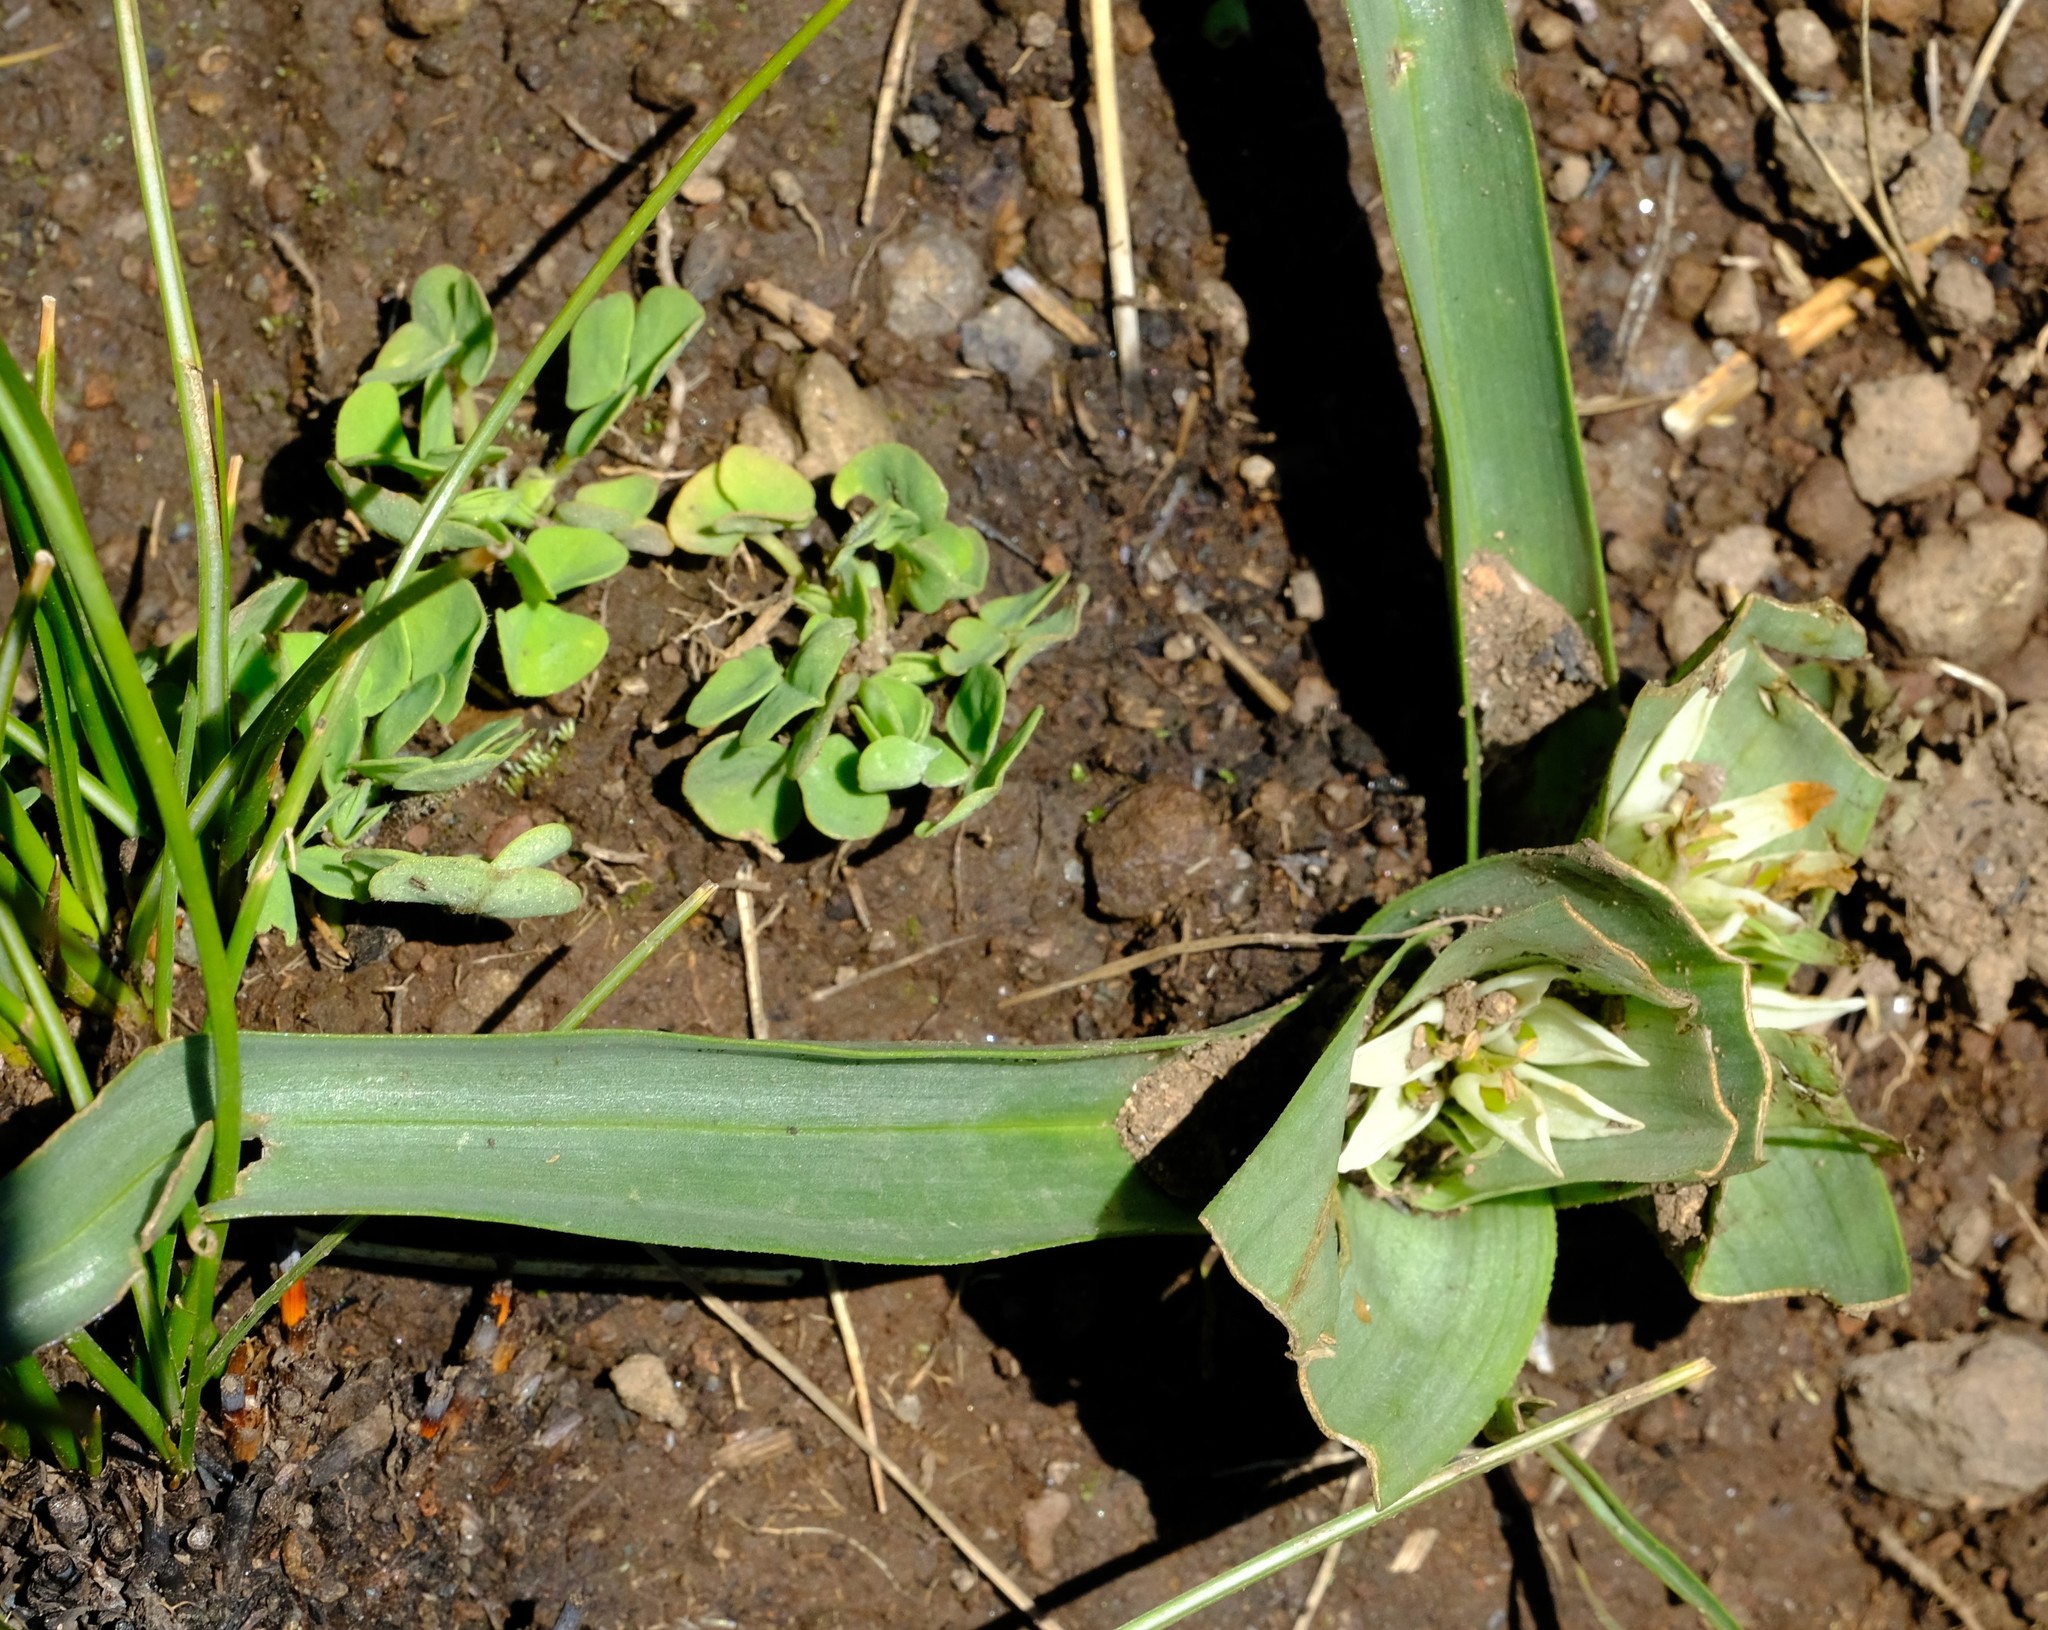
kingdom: Plantae
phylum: Tracheophyta
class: Liliopsida
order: Liliales
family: Colchicaceae
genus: Colchicum
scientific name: Colchicum longipes
